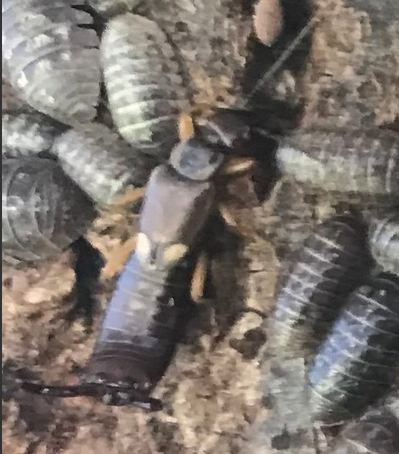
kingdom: Animalia
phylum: Arthropoda
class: Insecta
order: Dermaptera
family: Forficulidae
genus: Forficula
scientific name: Forficula
